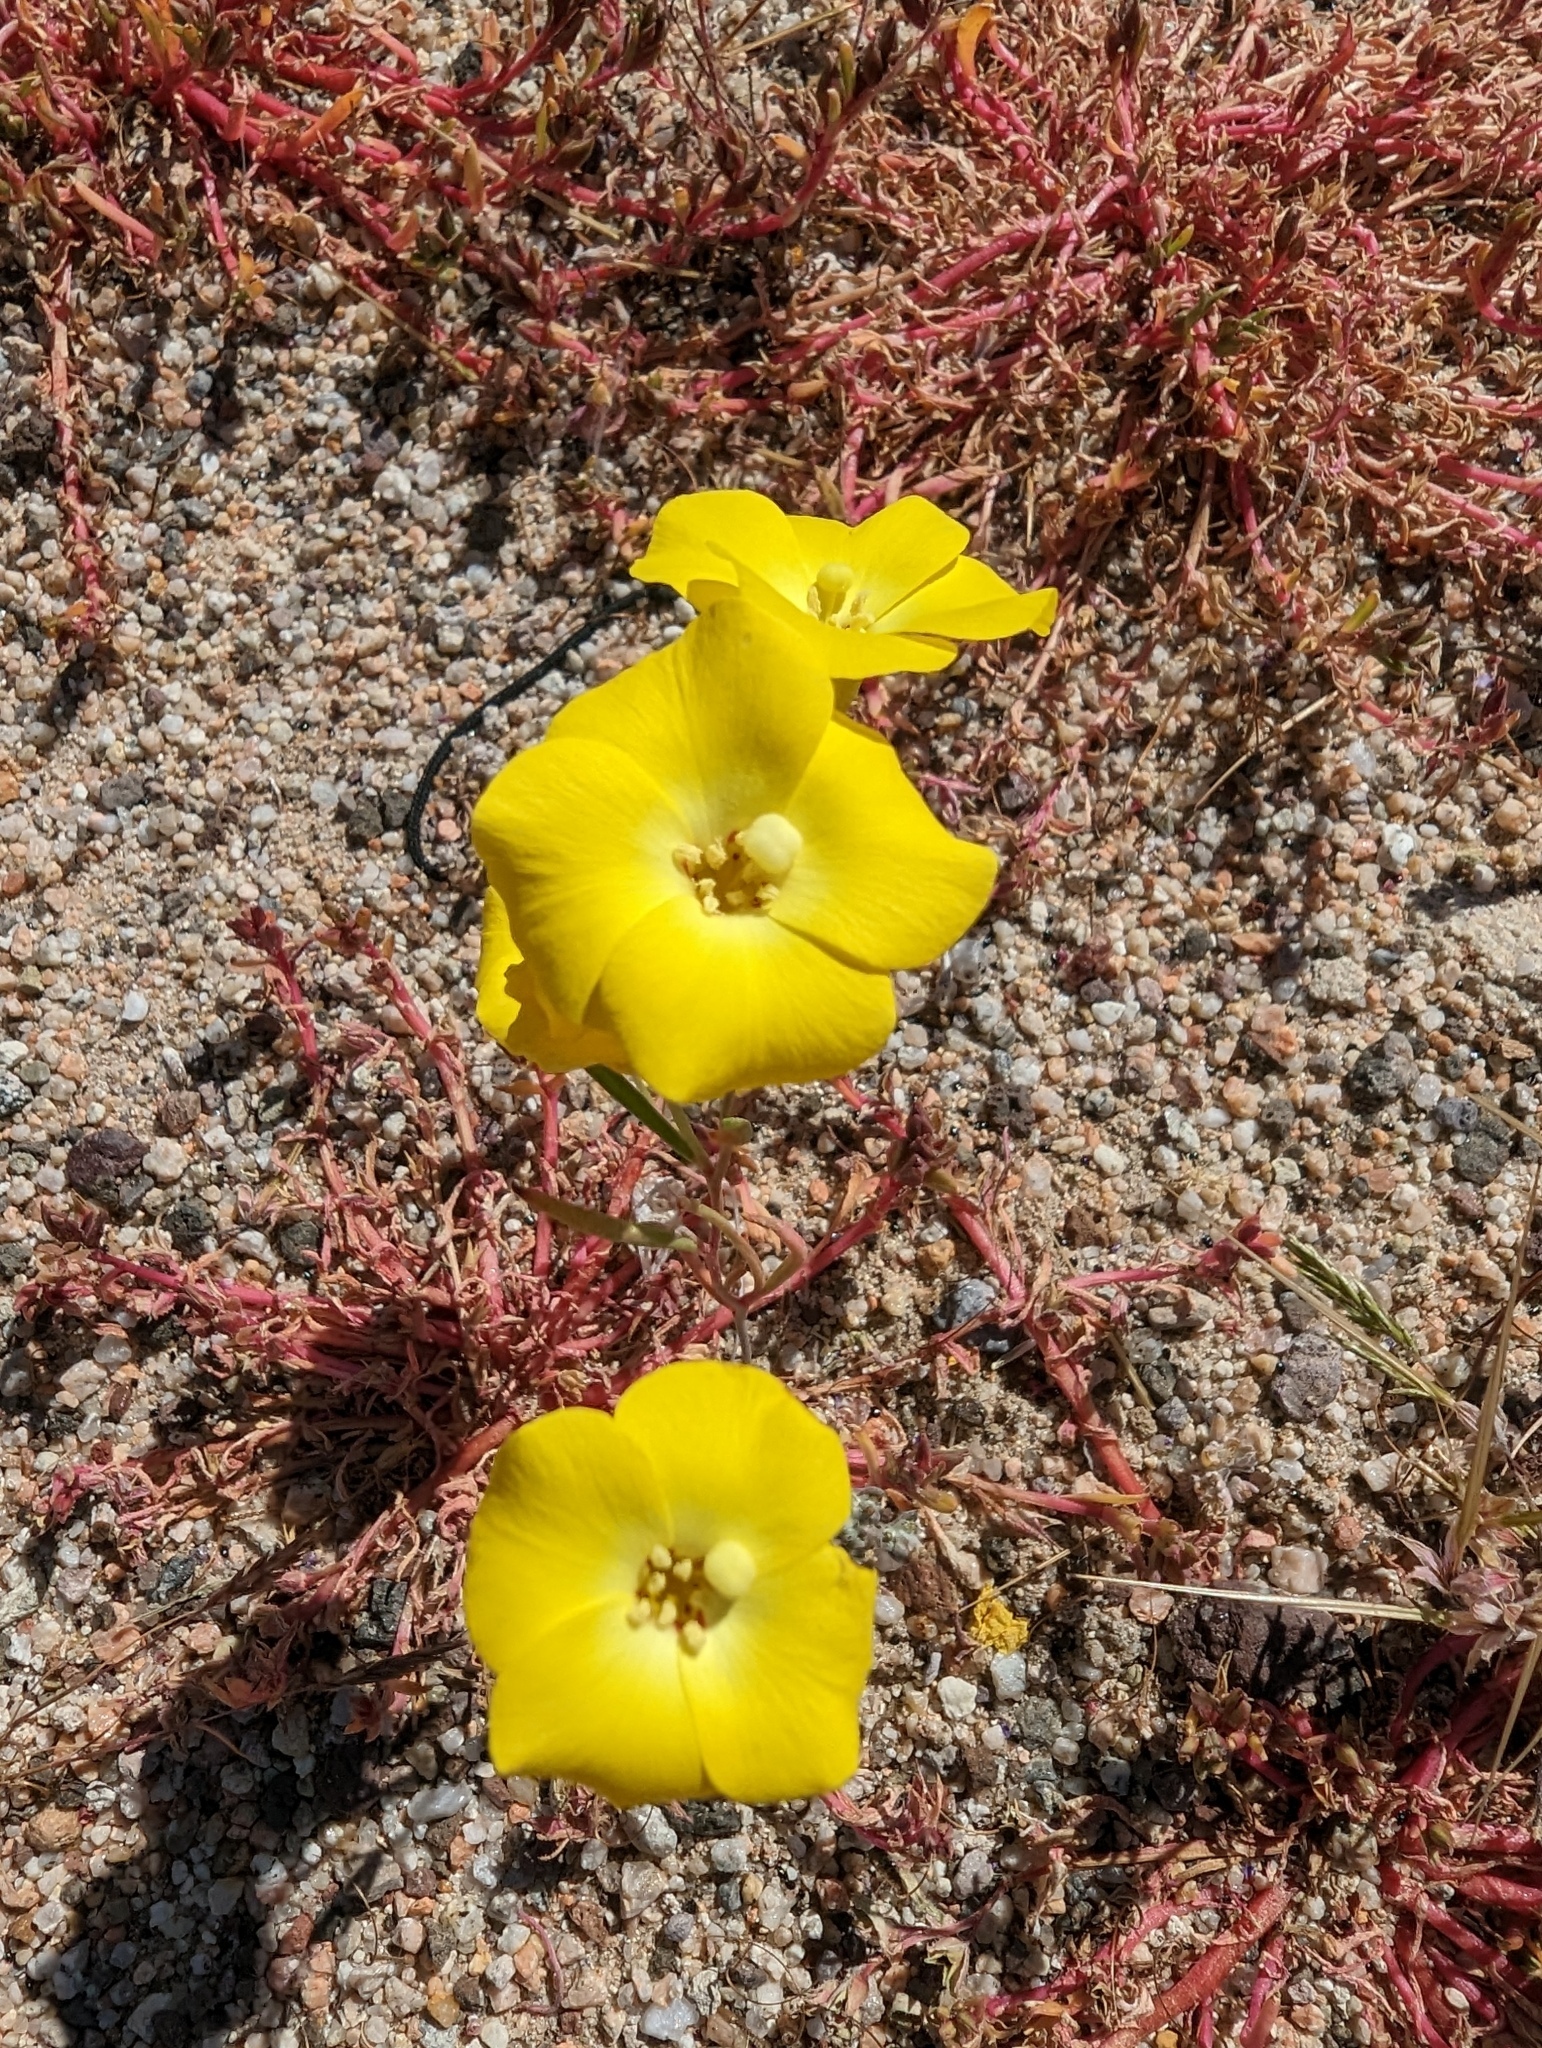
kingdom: Plantae
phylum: Tracheophyta
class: Magnoliopsida
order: Myrtales
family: Onagraceae
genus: Camissonia
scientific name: Camissonia campestris
